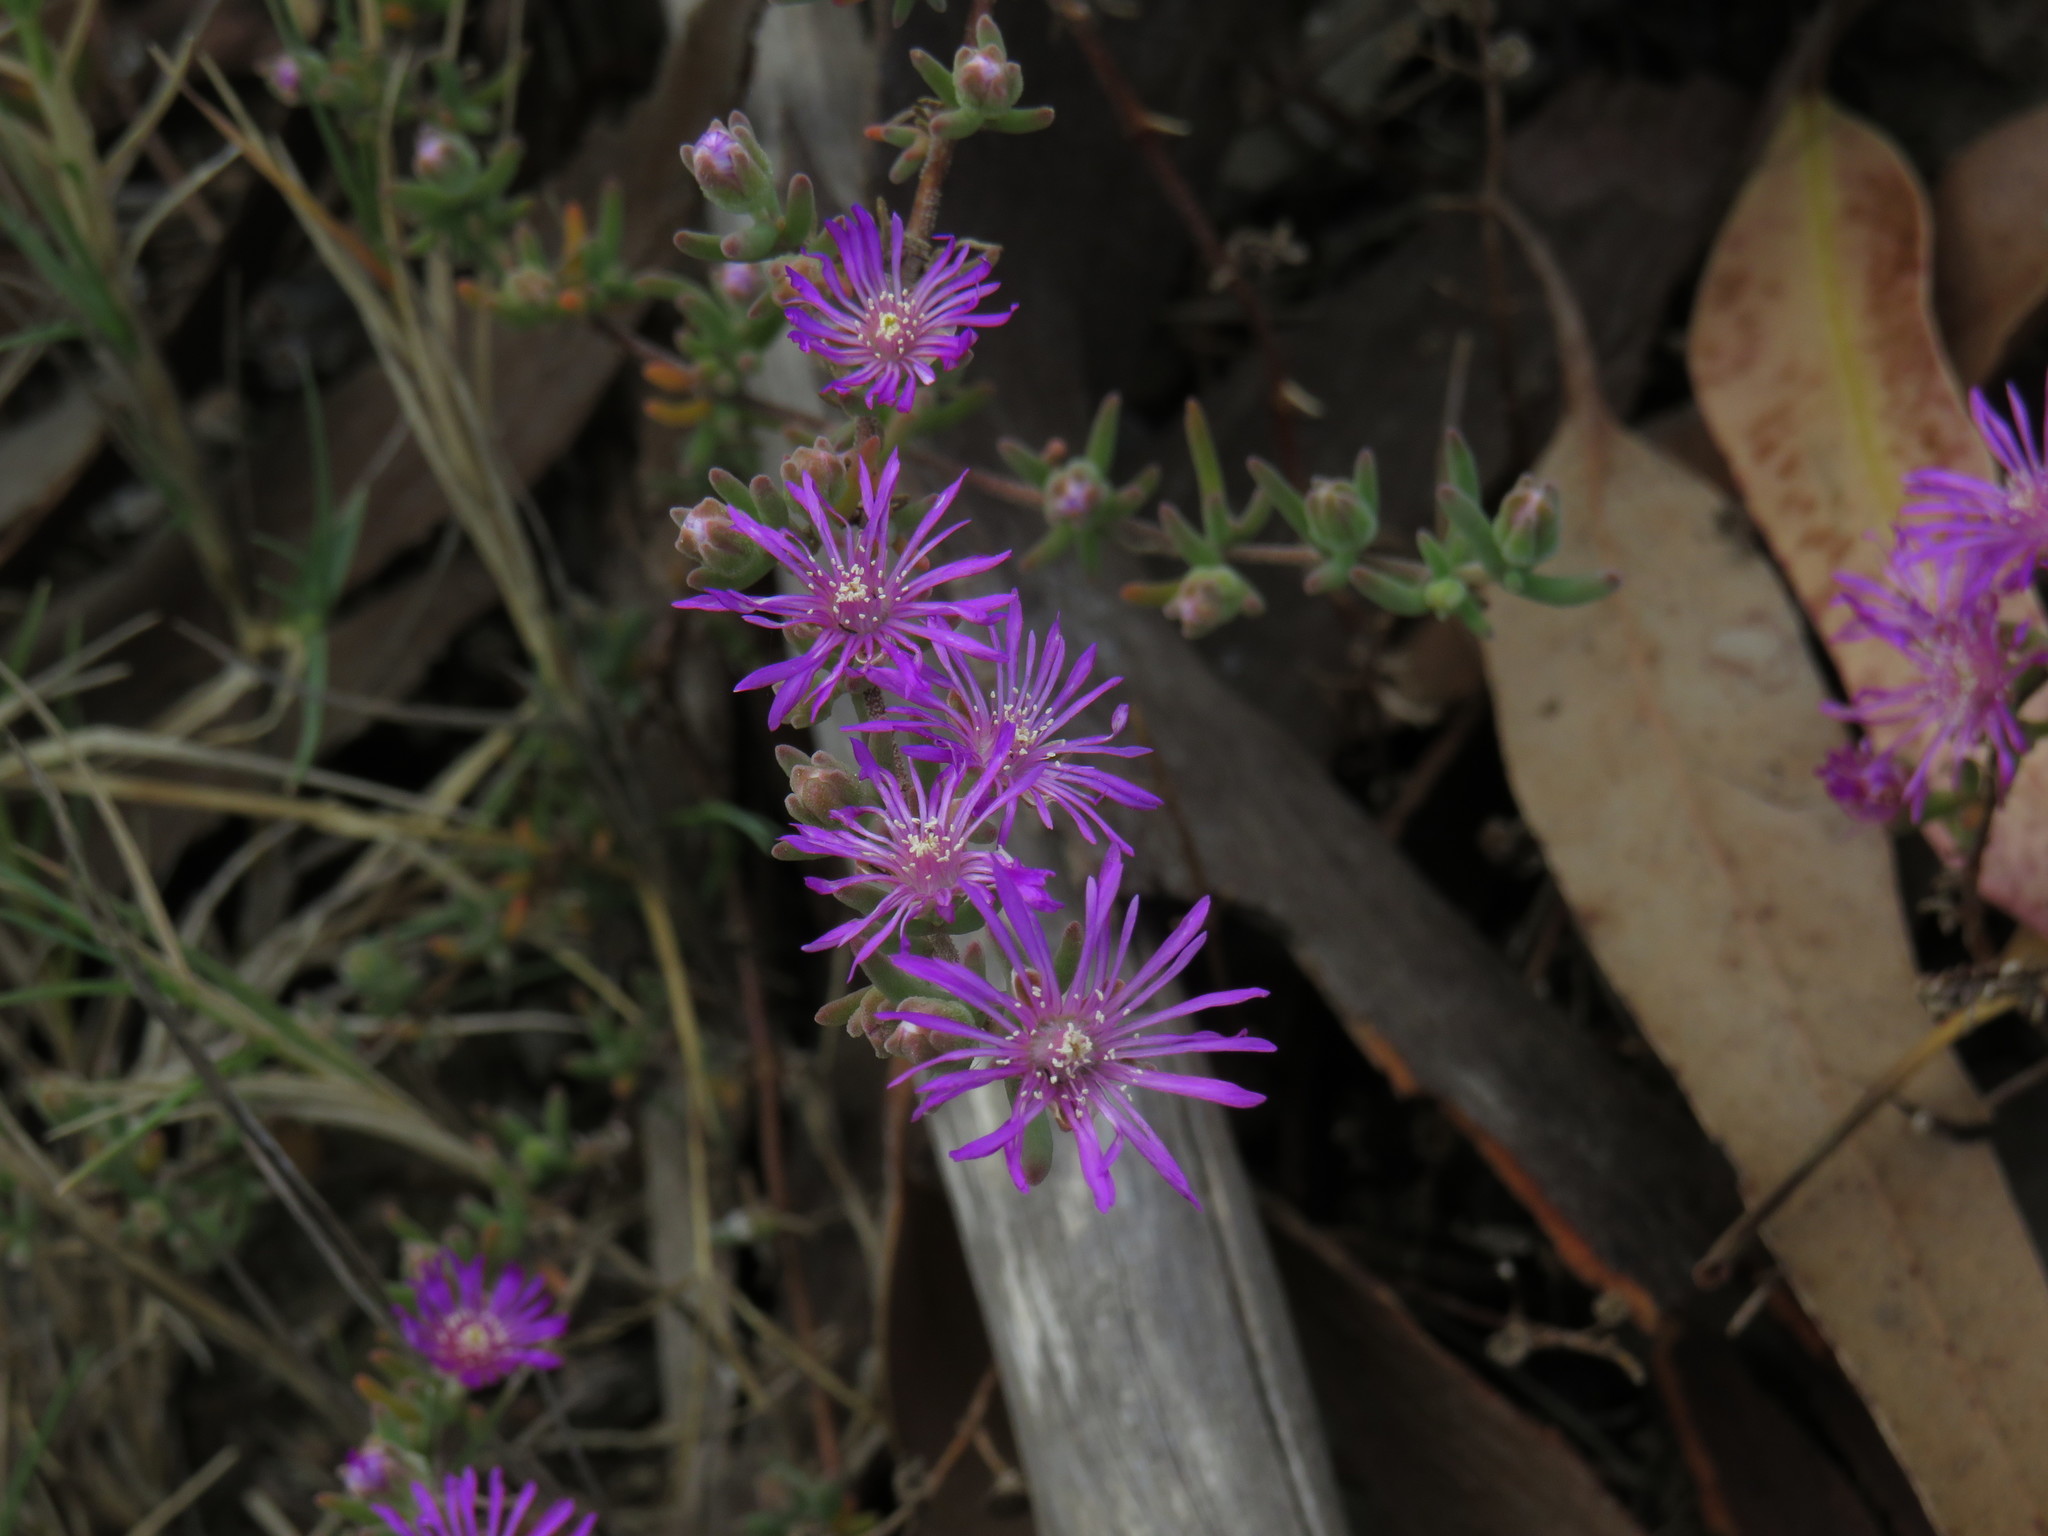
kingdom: Plantae
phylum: Tracheophyta
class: Magnoliopsida
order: Caryophyllales
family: Aizoaceae
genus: Drosanthemum
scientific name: Drosanthemum ambiguum
